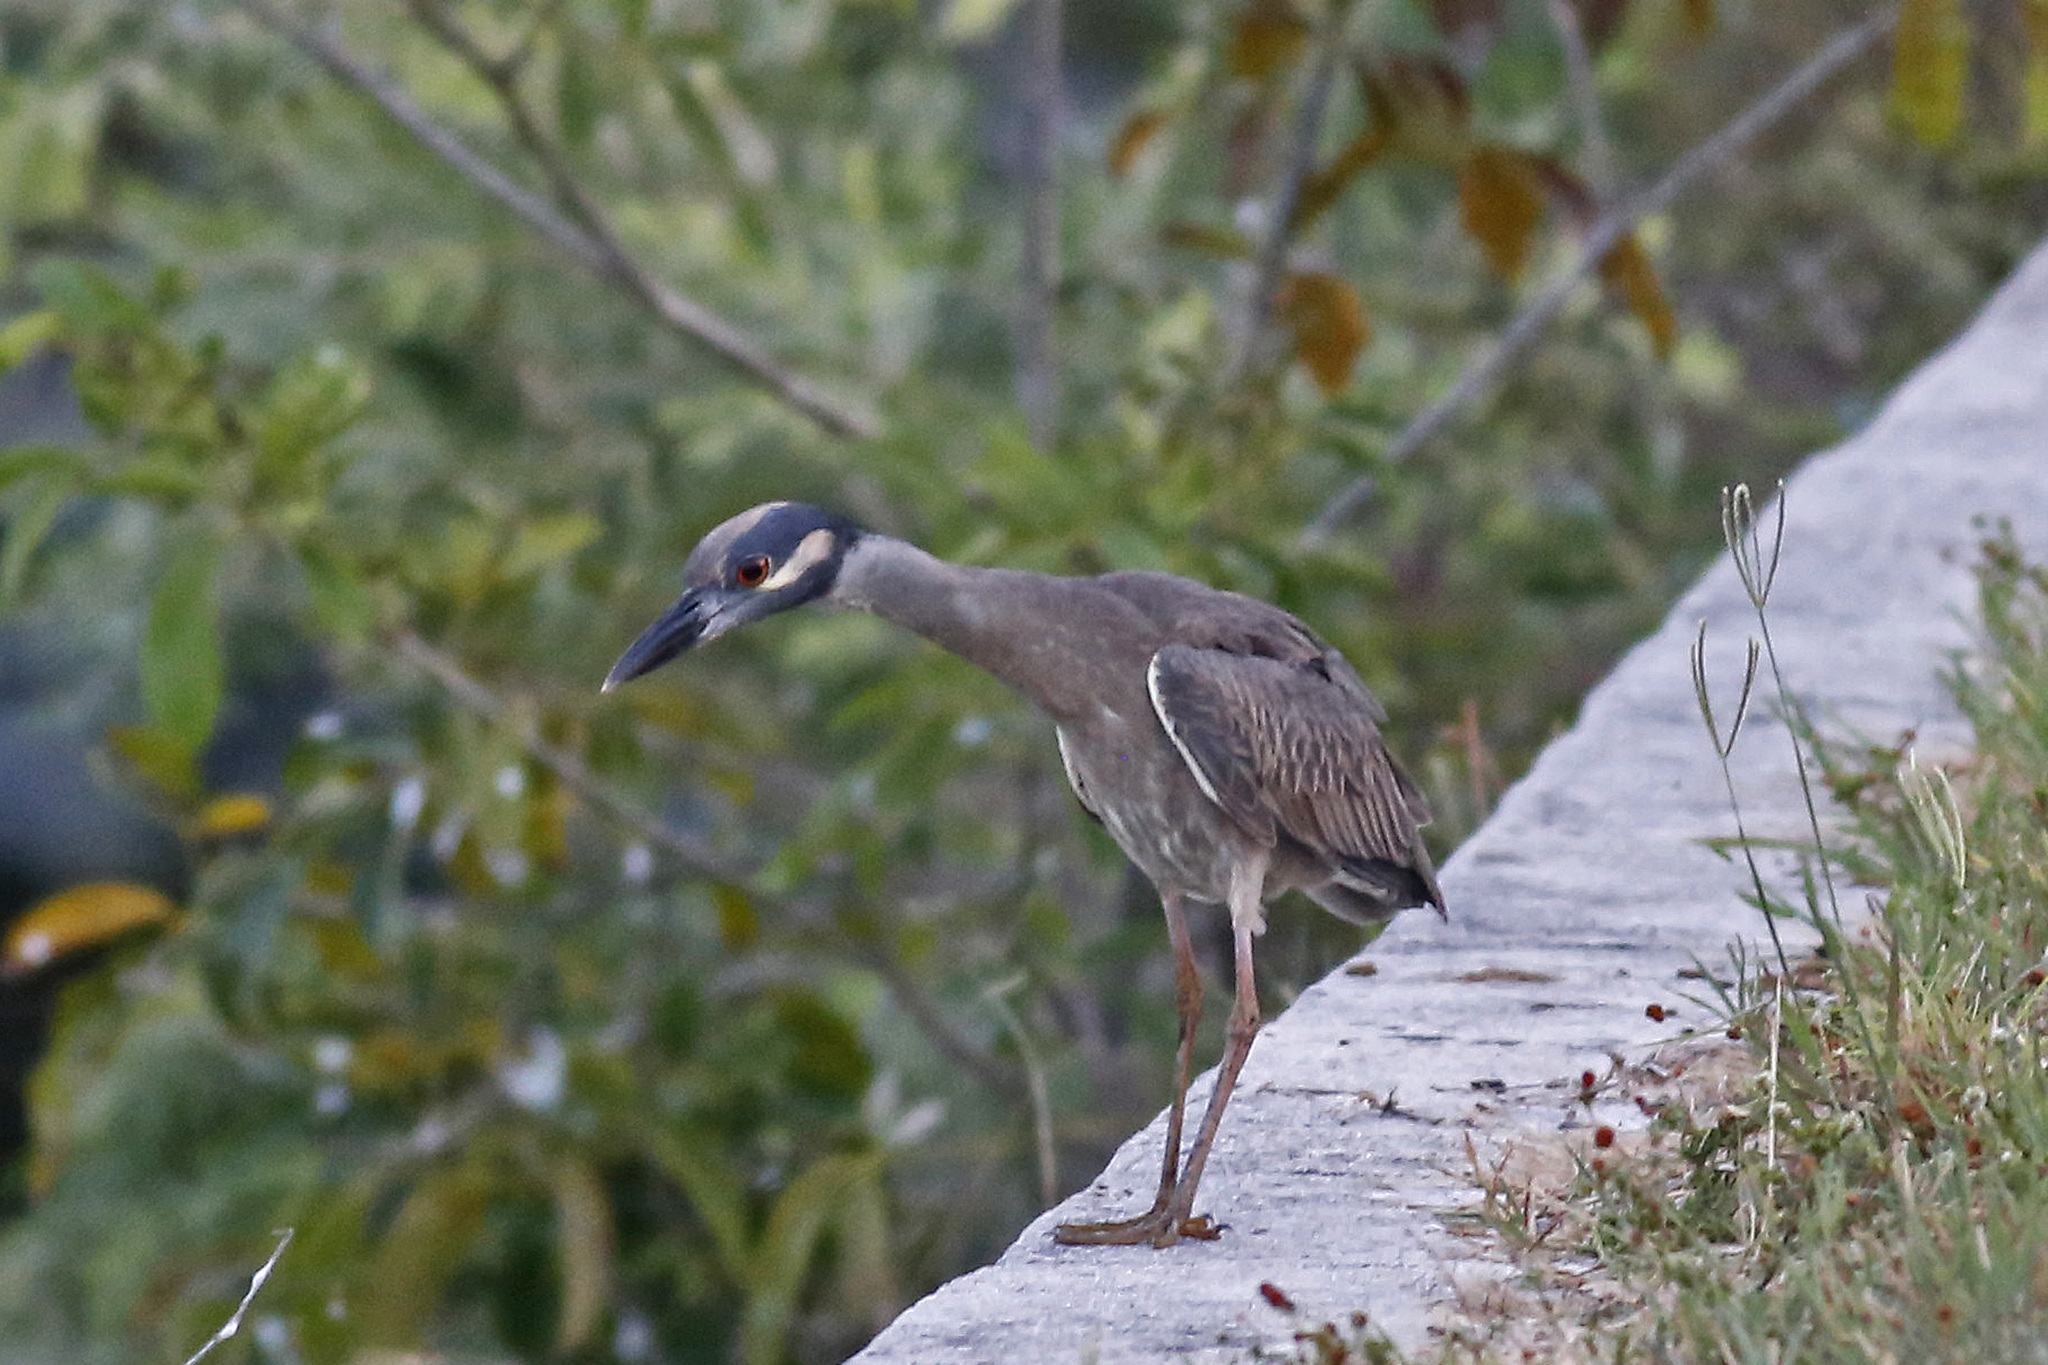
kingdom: Animalia
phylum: Chordata
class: Aves
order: Pelecaniformes
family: Ardeidae
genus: Nyctanassa
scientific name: Nyctanassa violacea
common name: Yellow-crowned night heron
